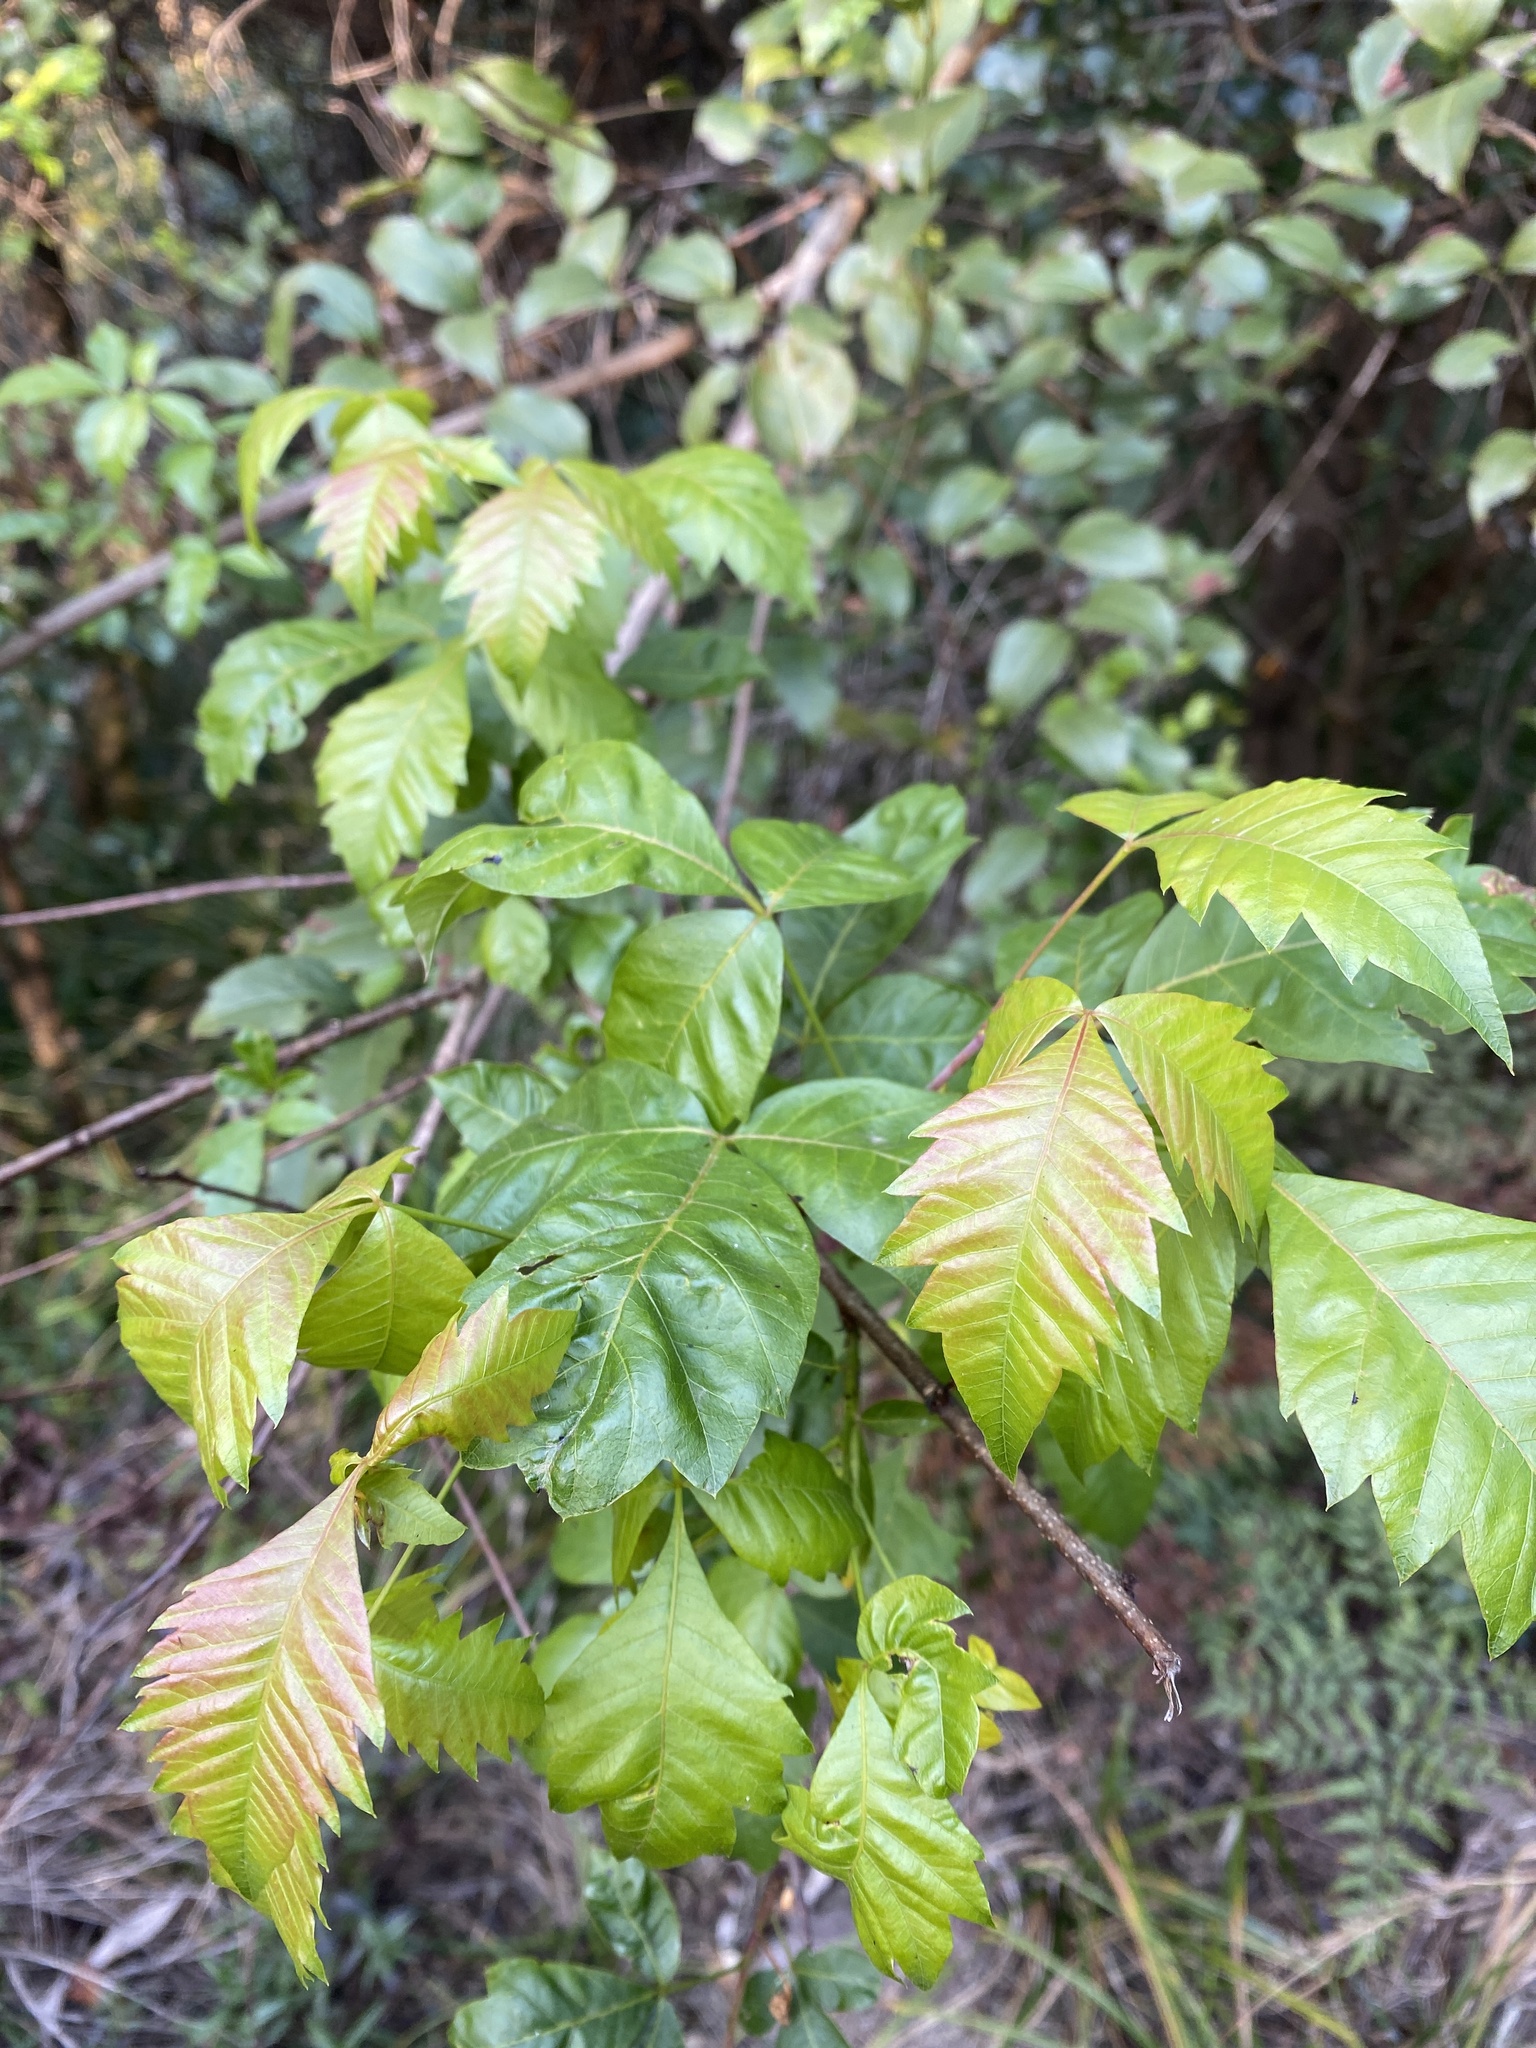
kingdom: Plantae
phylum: Tracheophyta
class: Magnoliopsida
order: Sapindales
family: Anacardiaceae
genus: Searsia
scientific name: Searsia dentata
